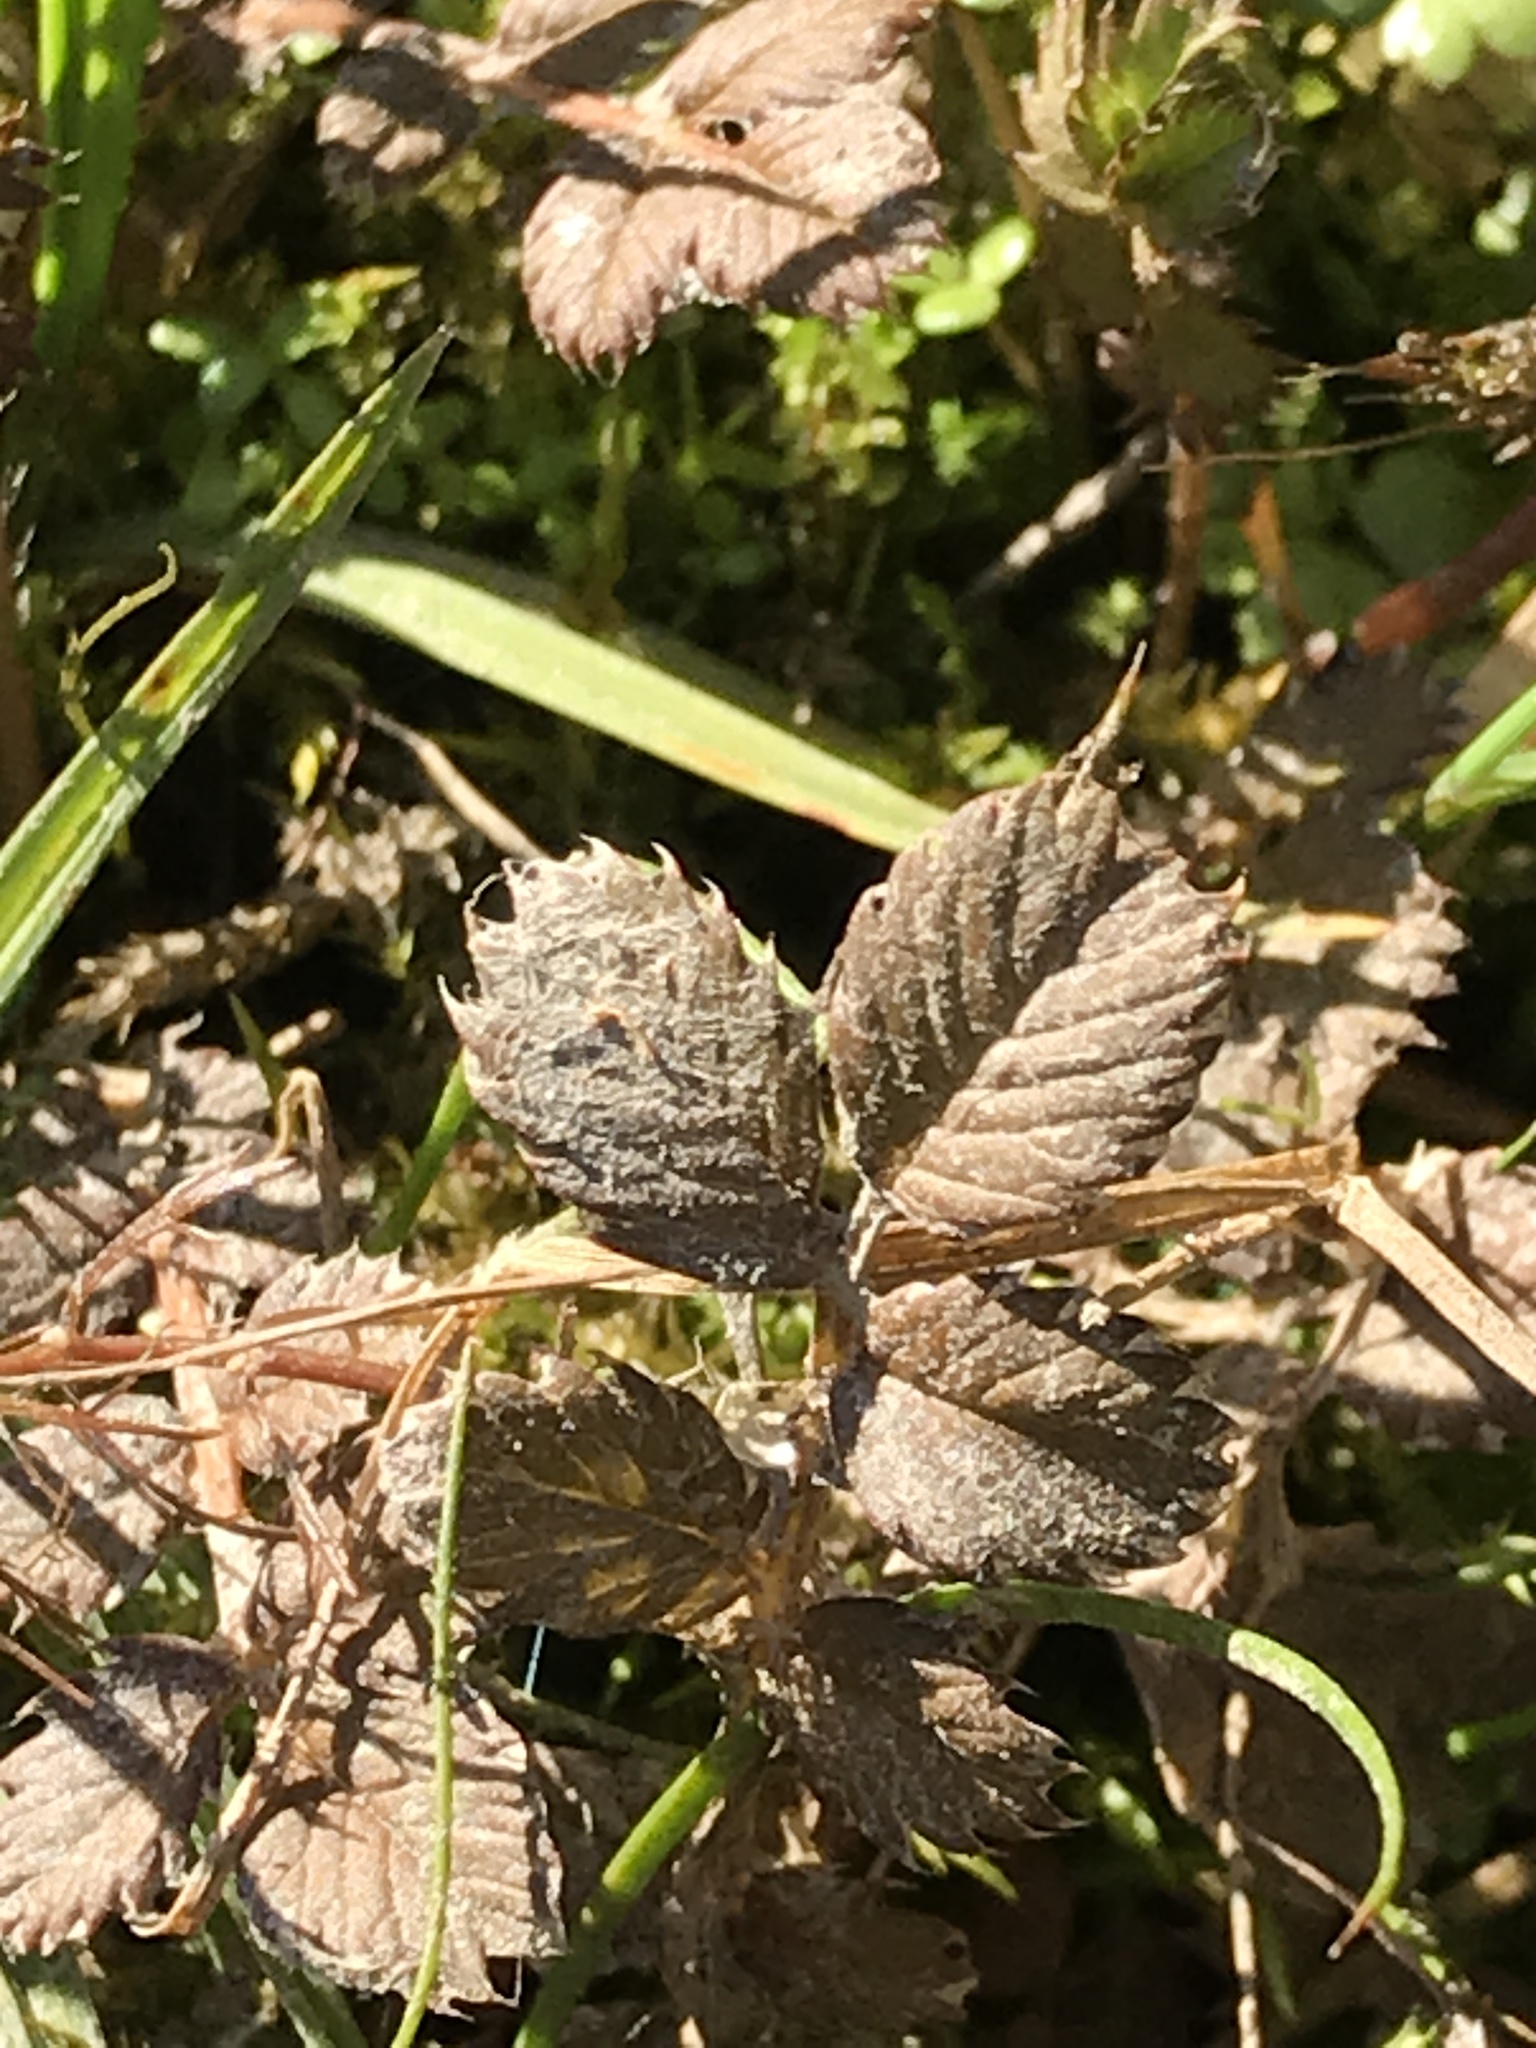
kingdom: Plantae
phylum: Tracheophyta
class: Magnoliopsida
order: Rosales
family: Rosaceae
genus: Argentina
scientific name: Argentina anserinoides
